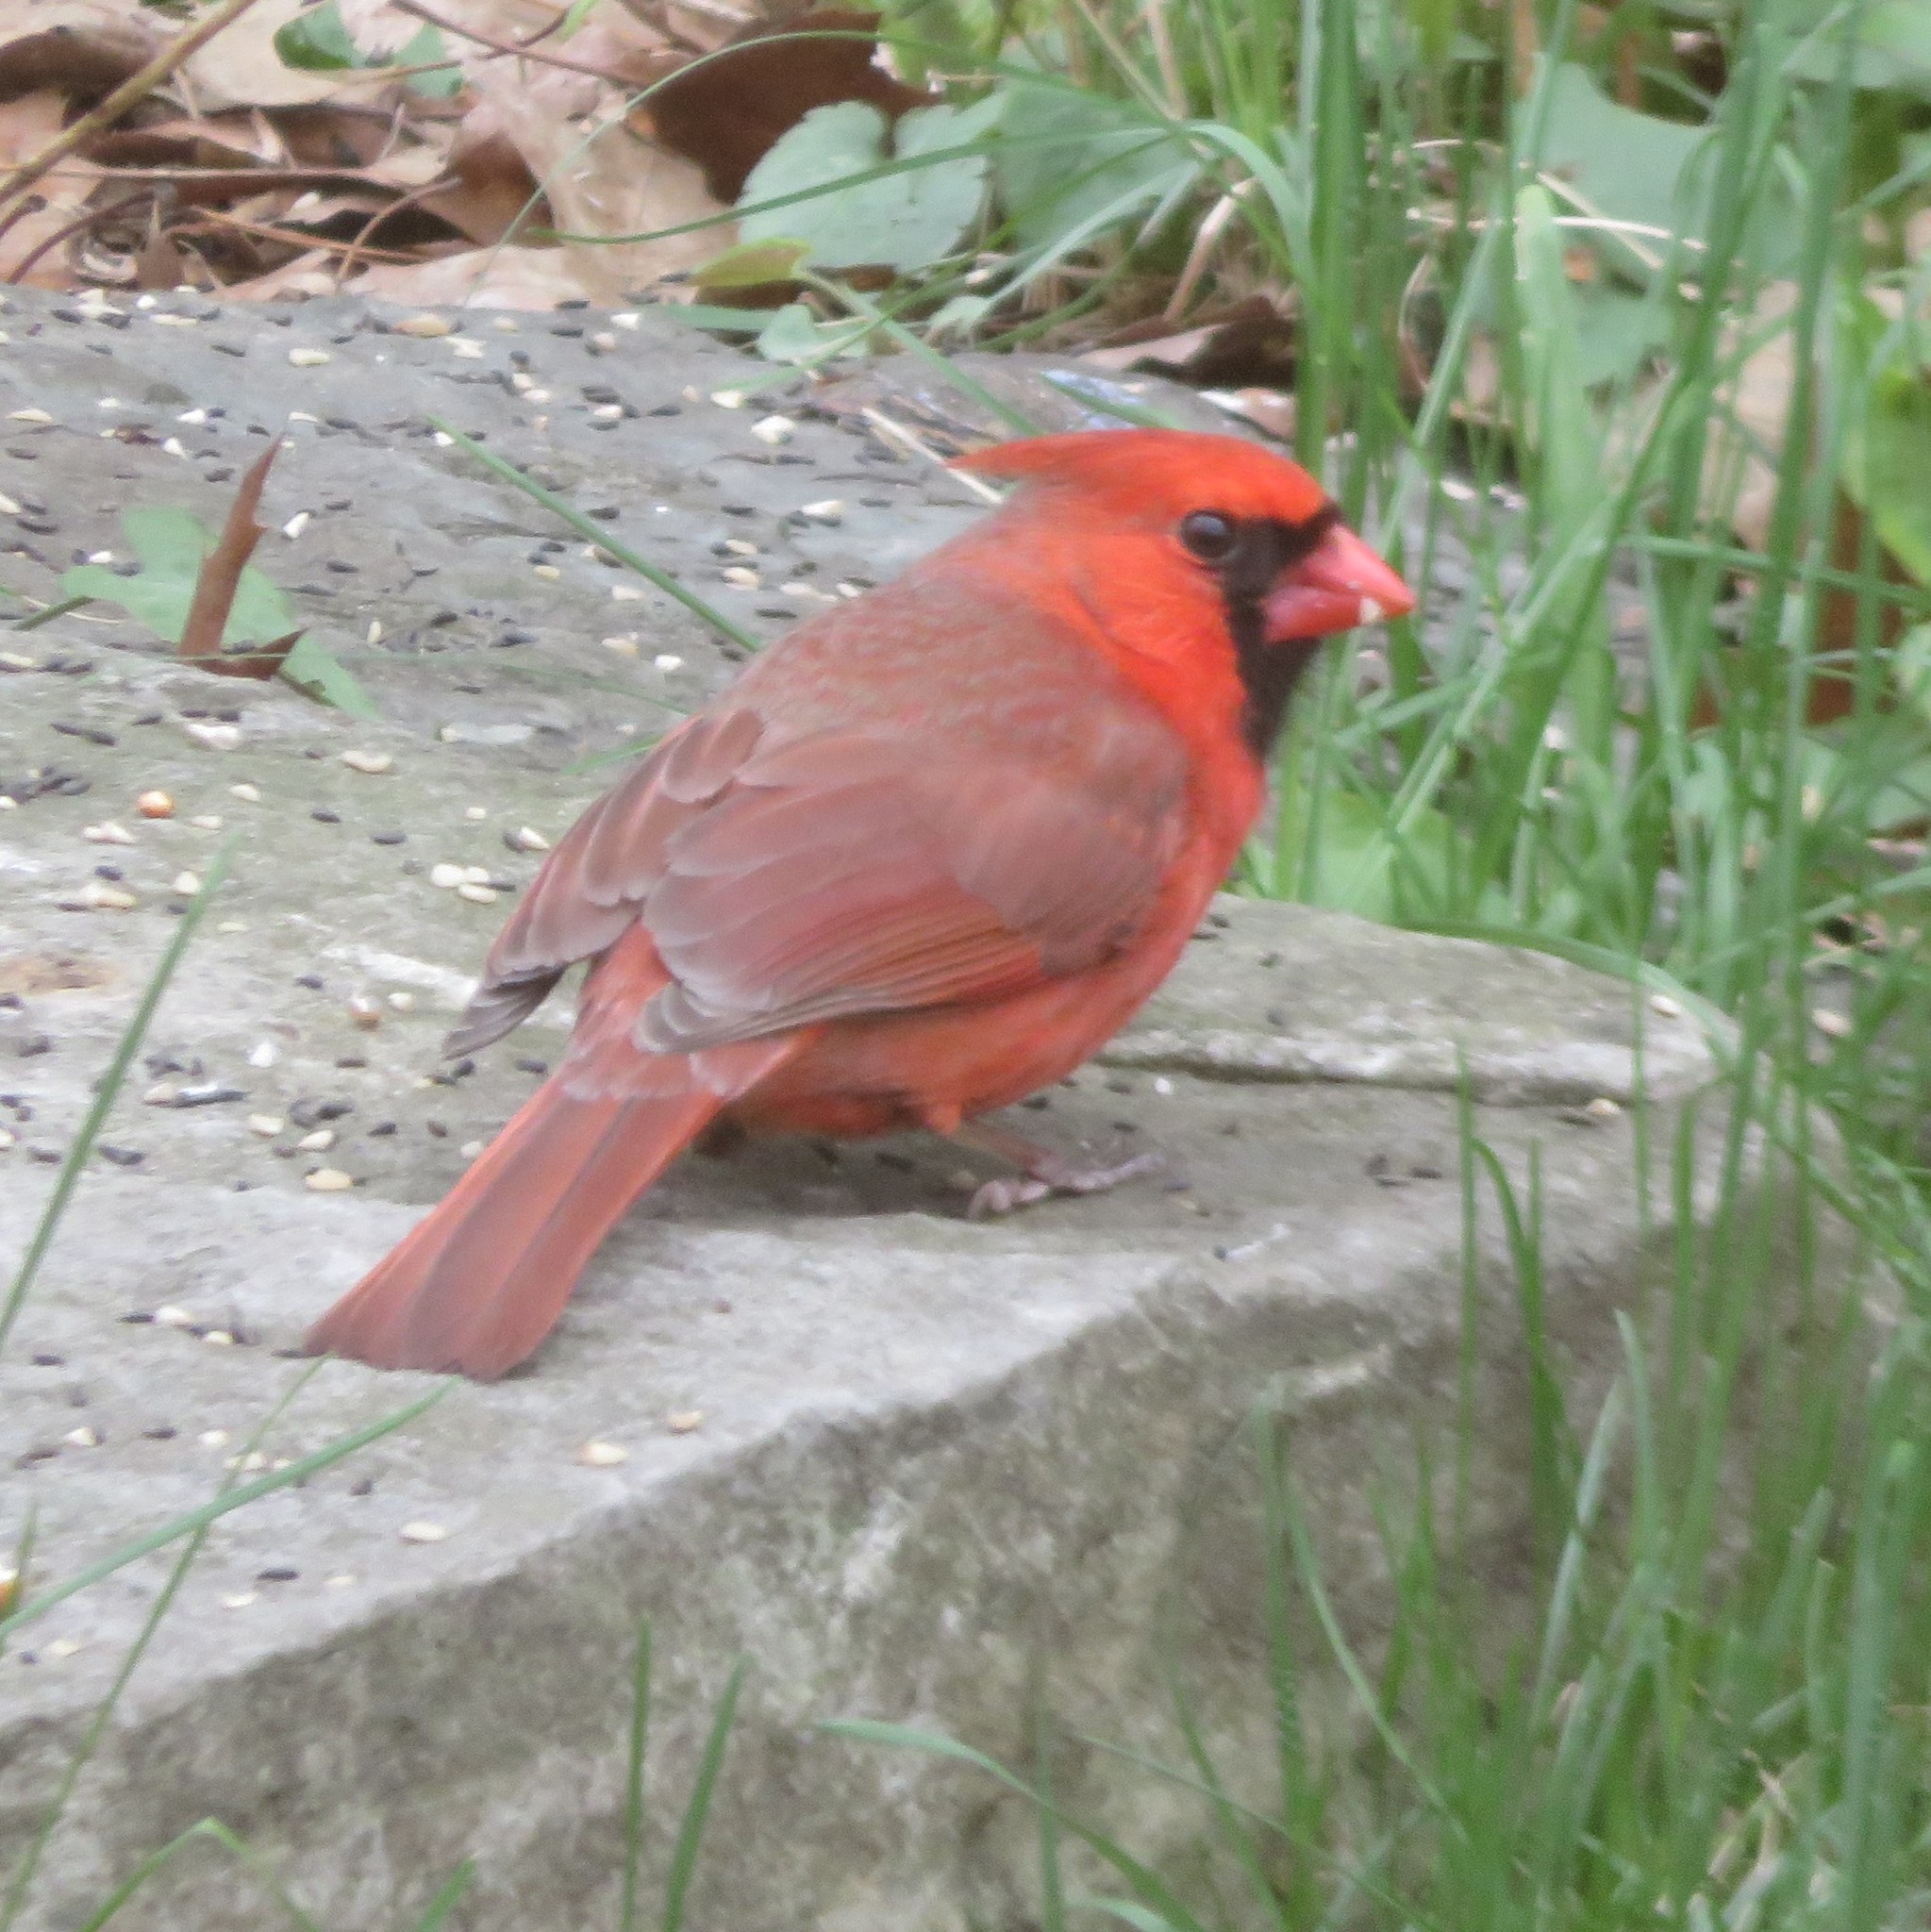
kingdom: Animalia
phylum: Chordata
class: Aves
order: Passeriformes
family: Cardinalidae
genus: Cardinalis
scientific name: Cardinalis cardinalis
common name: Northern cardinal
